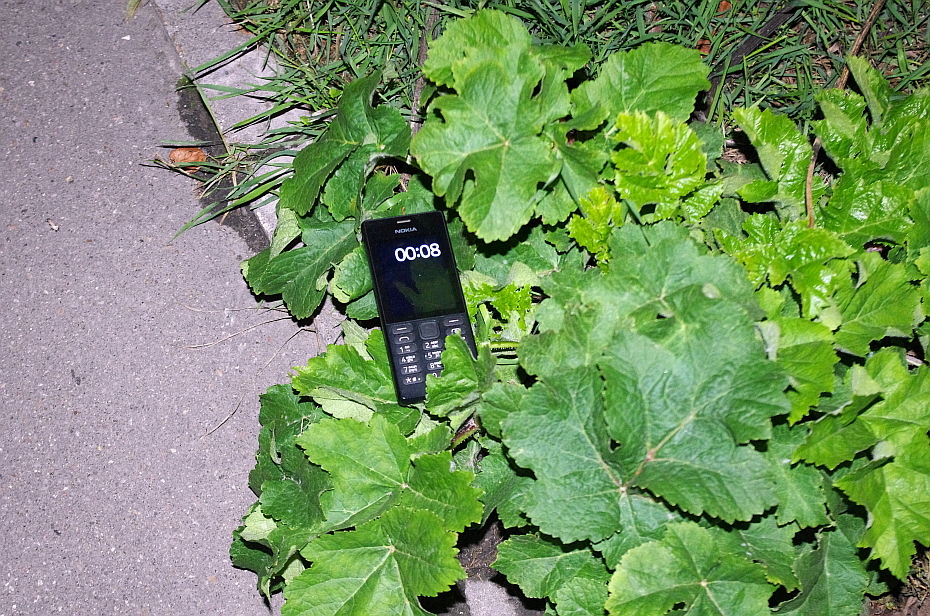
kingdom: Plantae
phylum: Tracheophyta
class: Magnoliopsida
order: Apiales
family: Apiaceae
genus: Heracleum
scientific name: Heracleum sphondylium
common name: Hogweed
